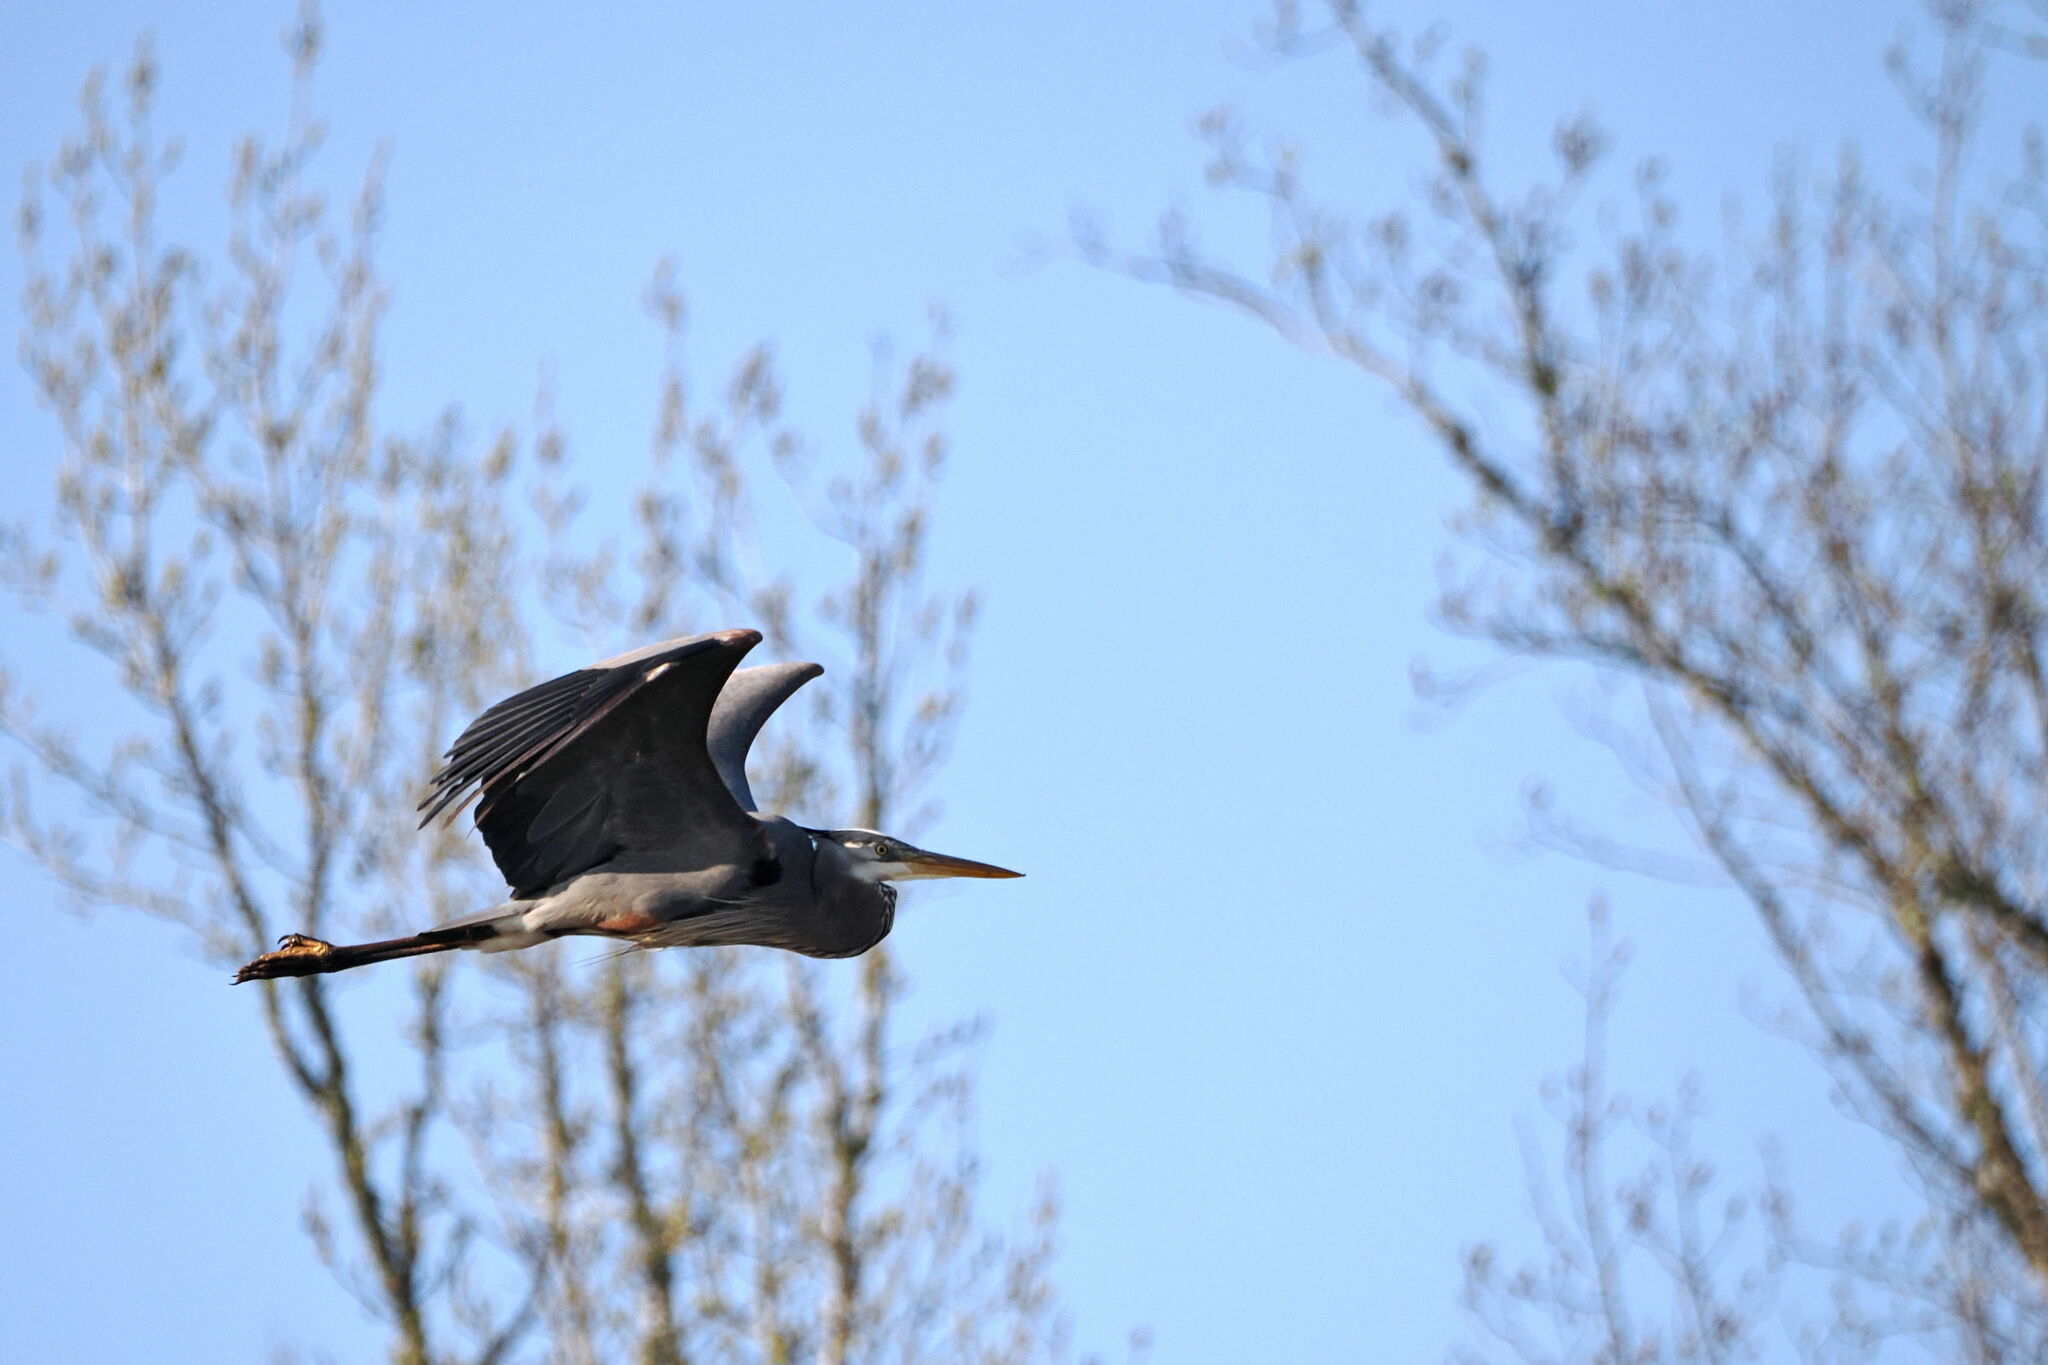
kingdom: Animalia
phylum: Chordata
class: Aves
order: Pelecaniformes
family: Ardeidae
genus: Ardea
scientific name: Ardea herodias
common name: Great blue heron
